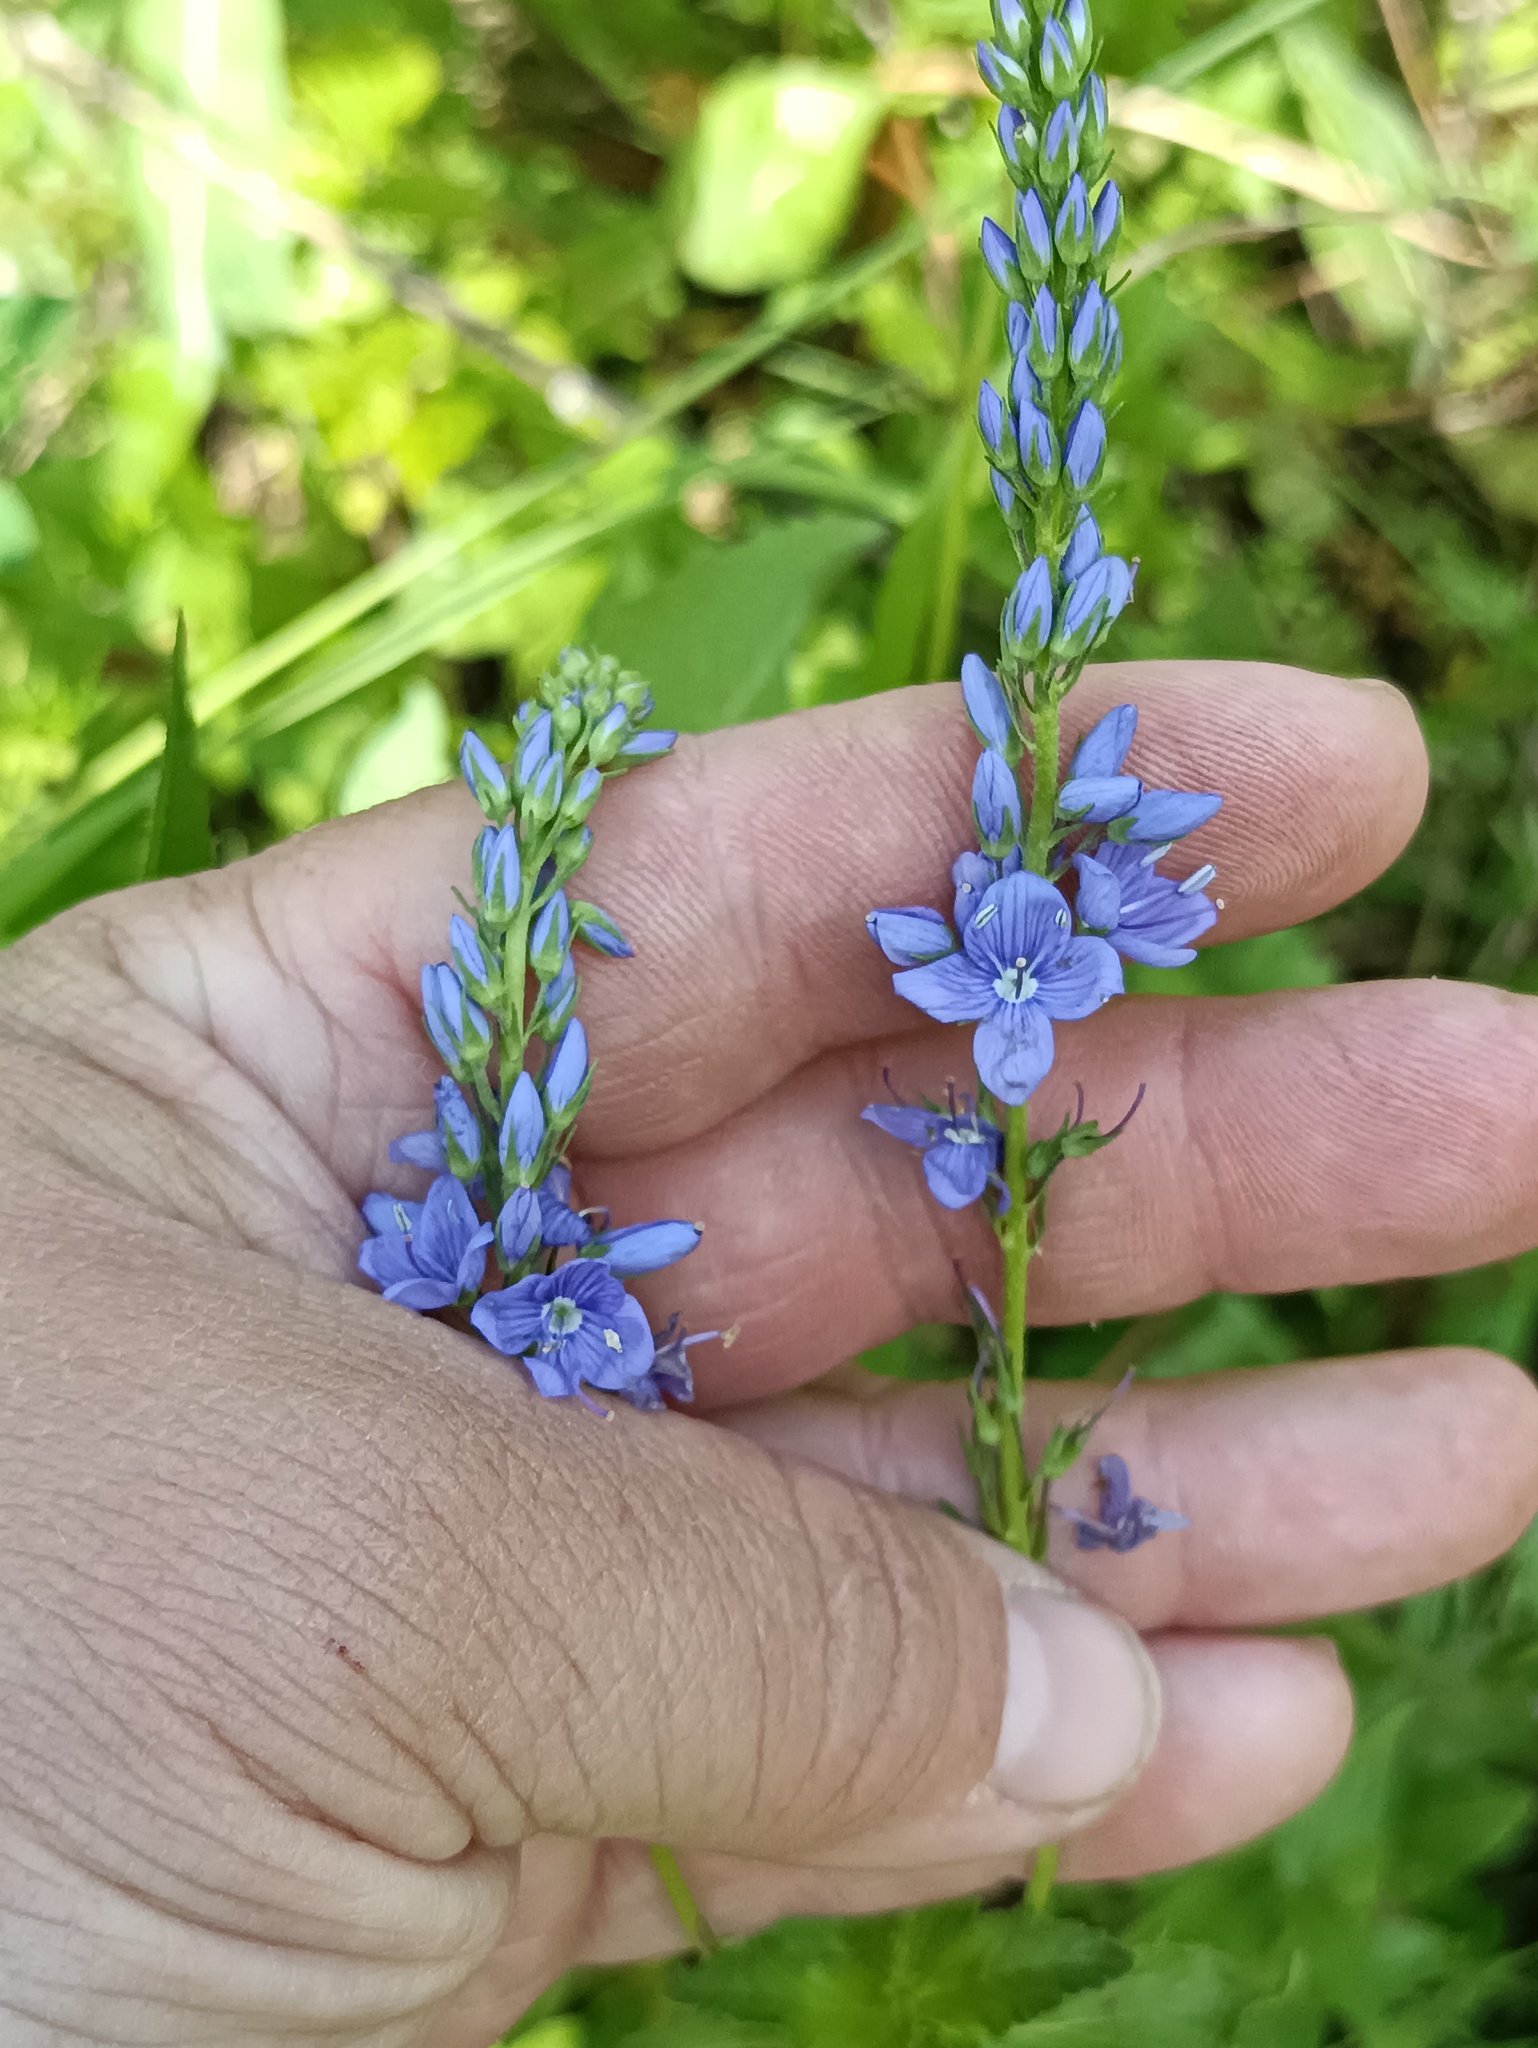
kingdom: Plantae
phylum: Tracheophyta
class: Magnoliopsida
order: Lamiales
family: Plantaginaceae
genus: Veronica
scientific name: Veronica teucrium
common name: Large speedwell
